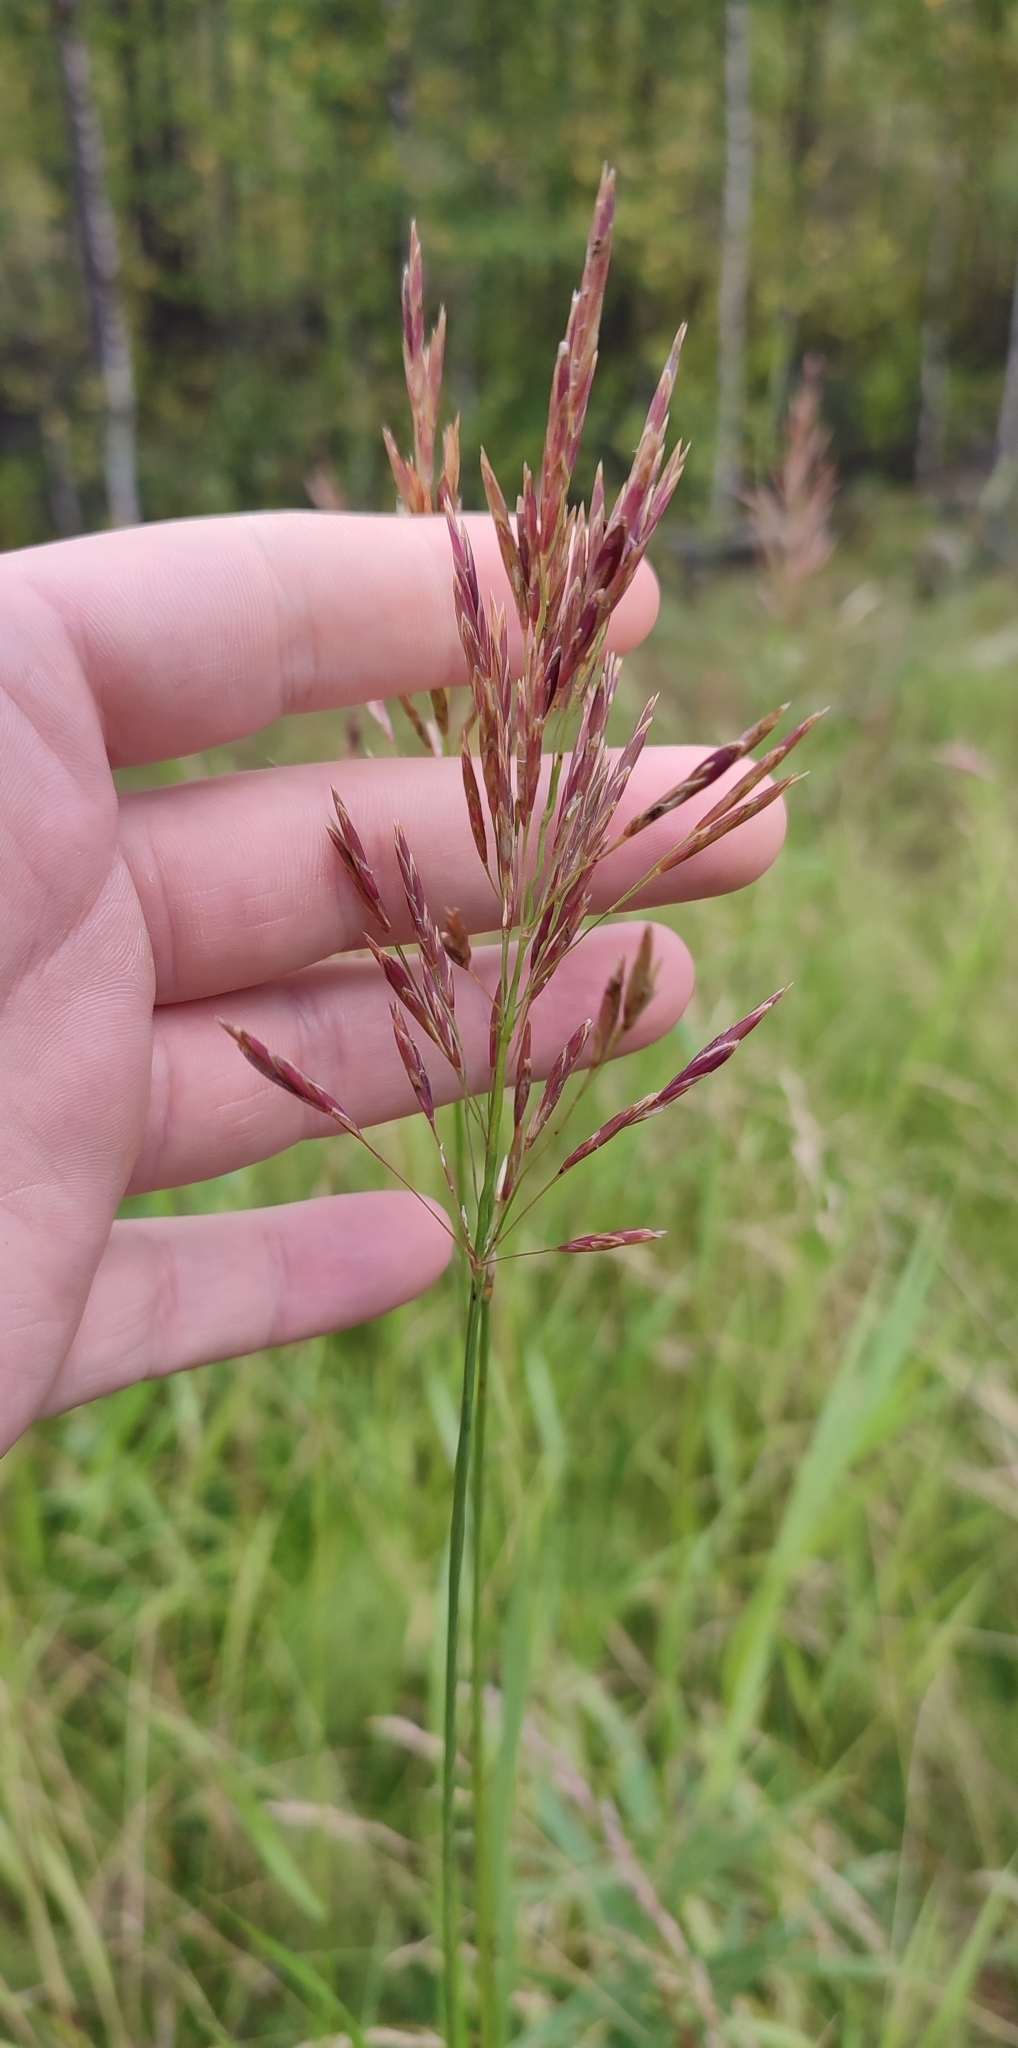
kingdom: Plantae
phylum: Tracheophyta
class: Liliopsida
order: Poales
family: Poaceae
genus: Bromus
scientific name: Bromus inermis
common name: Smooth brome
